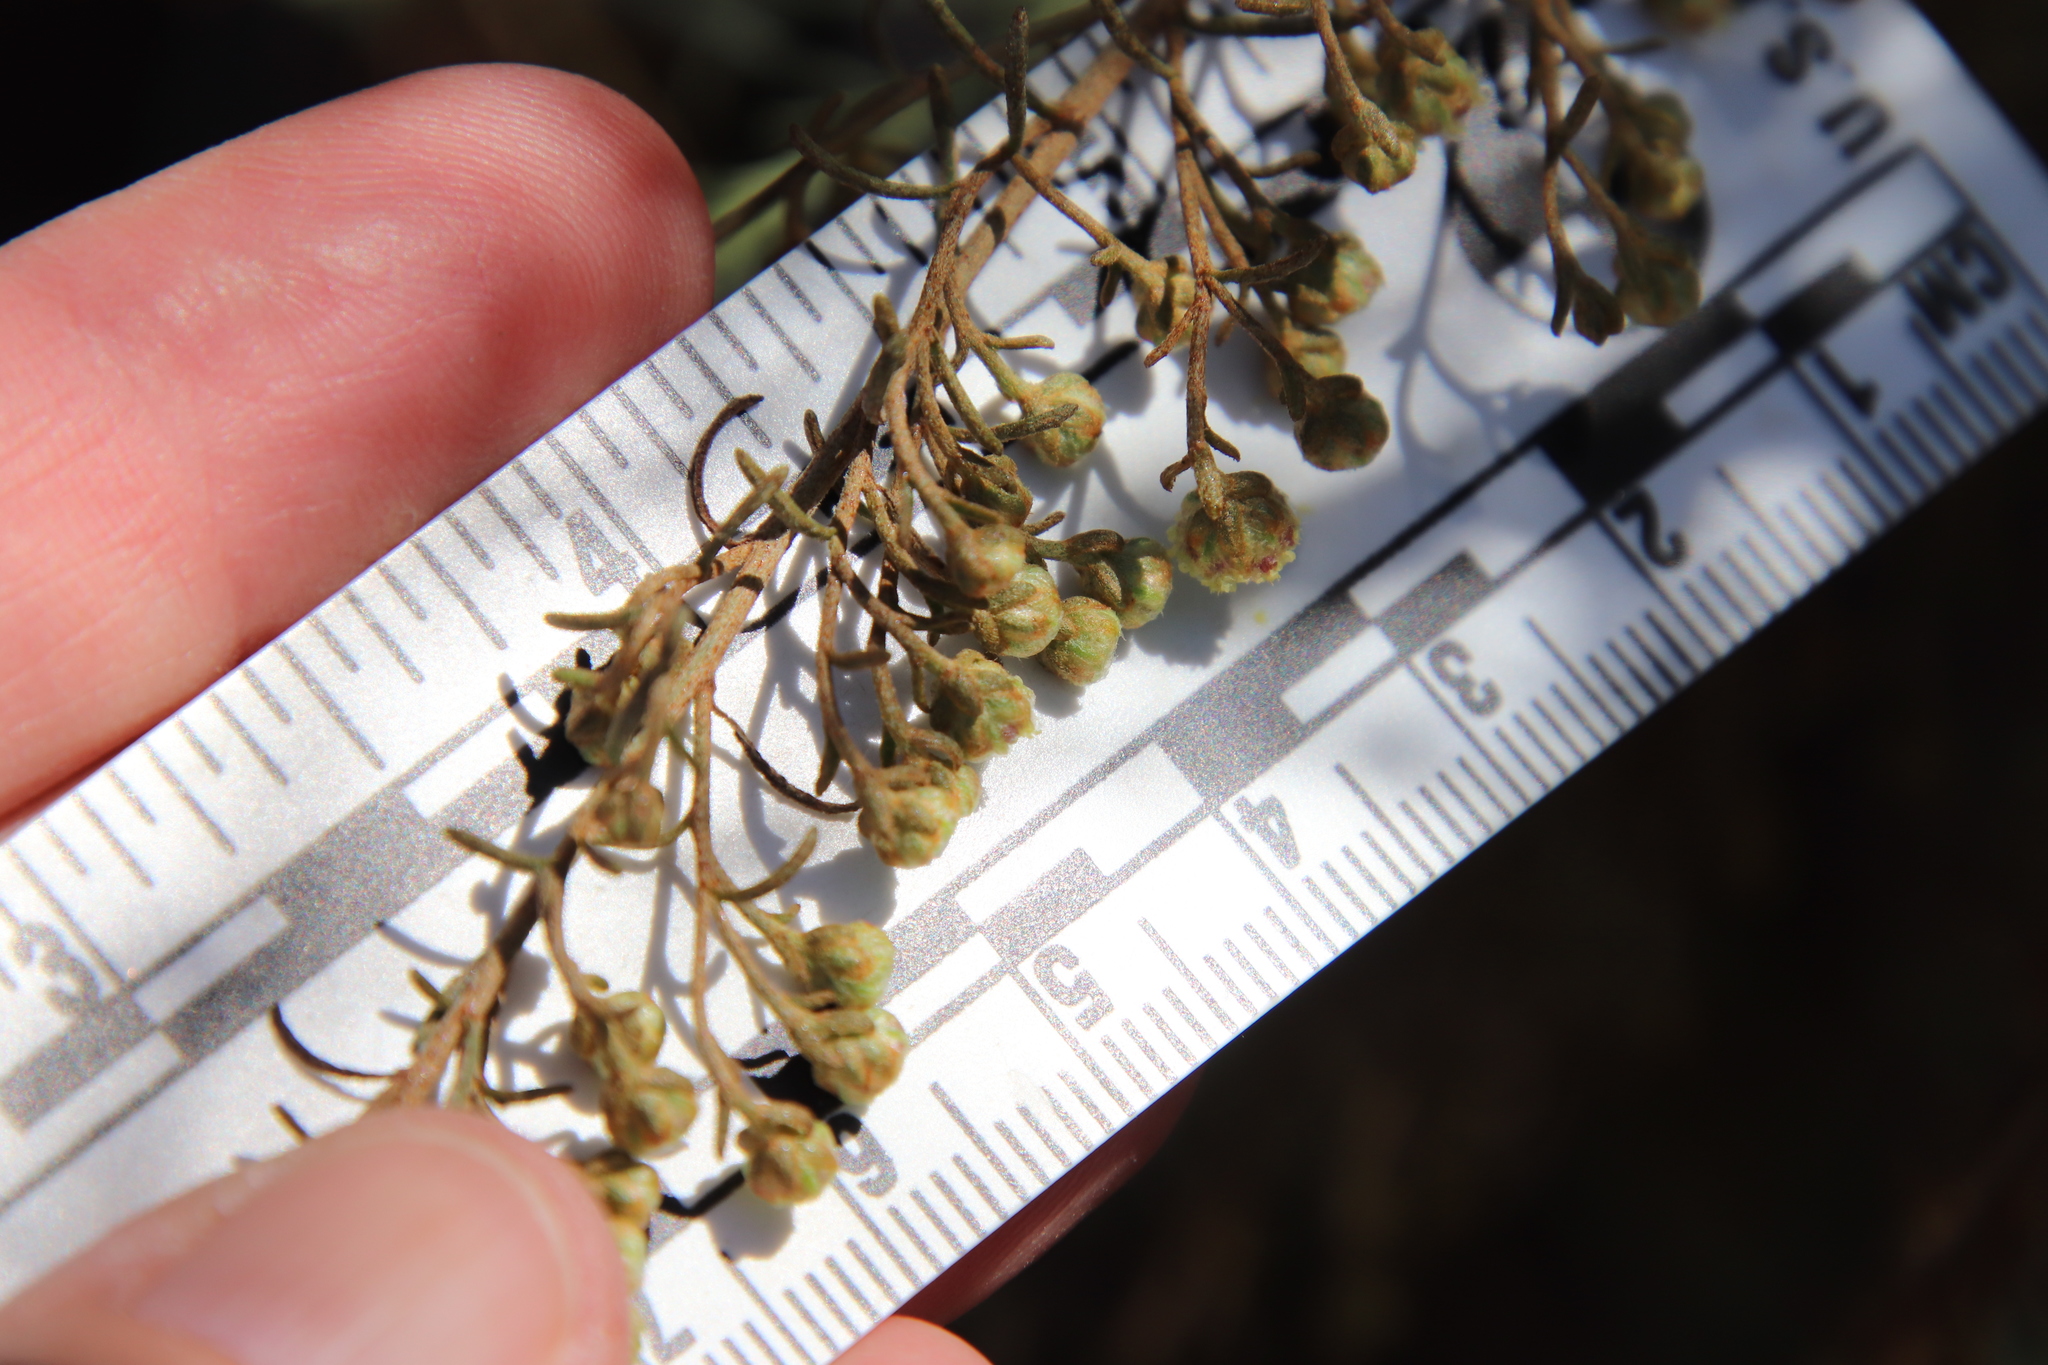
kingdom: Plantae
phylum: Tracheophyta
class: Magnoliopsida
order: Asterales
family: Asteraceae
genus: Artemisia
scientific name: Artemisia californica
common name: California sagebrush
